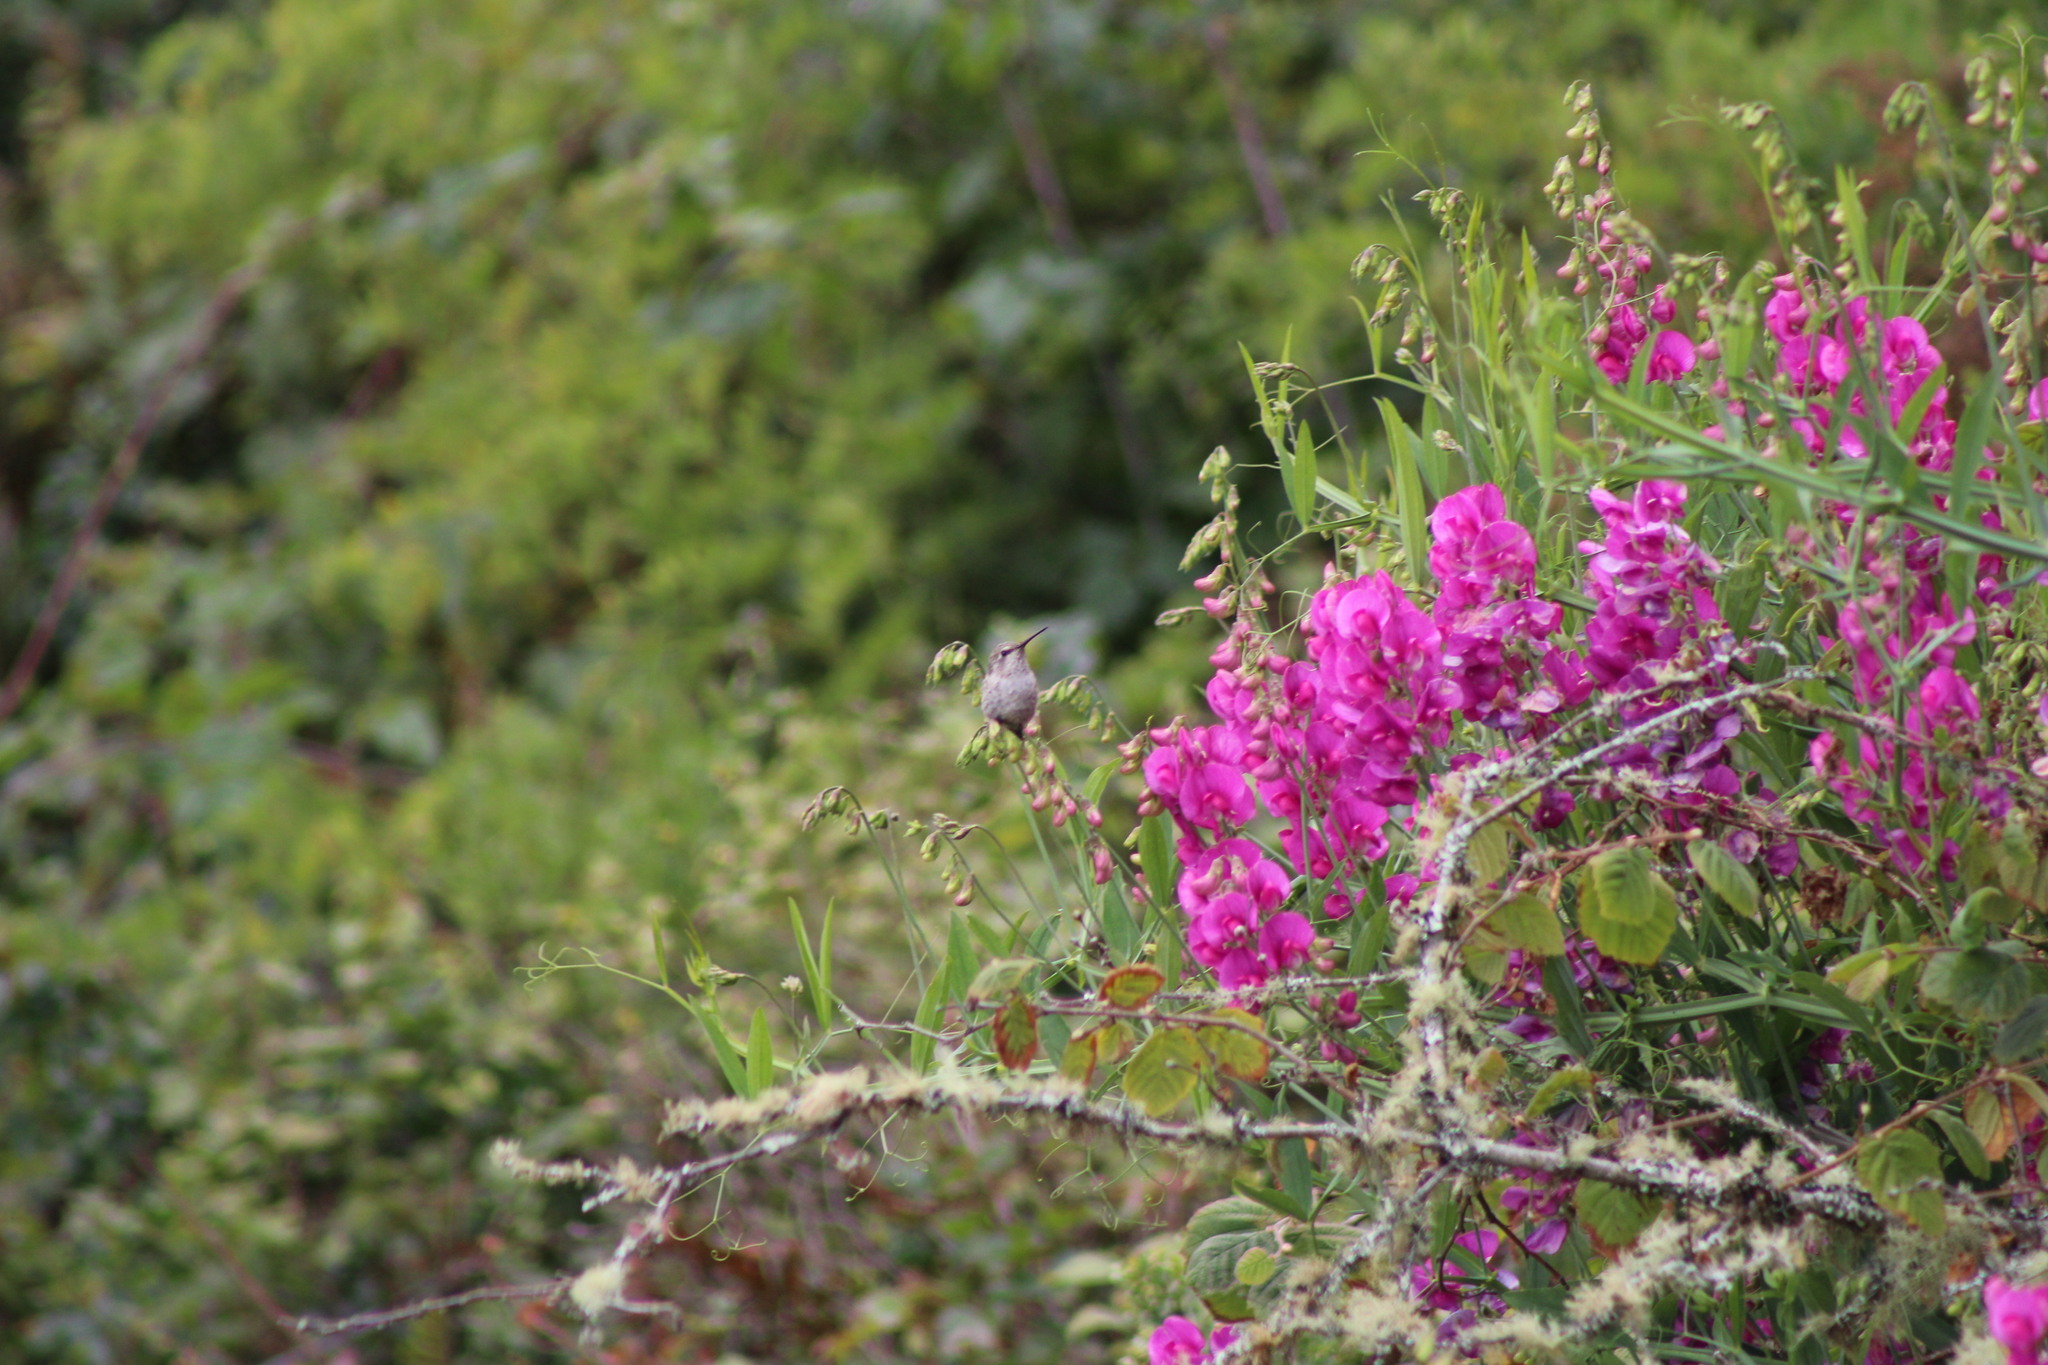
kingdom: Animalia
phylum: Chordata
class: Aves
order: Apodiformes
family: Trochilidae
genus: Calypte
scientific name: Calypte anna
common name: Anna's hummingbird
